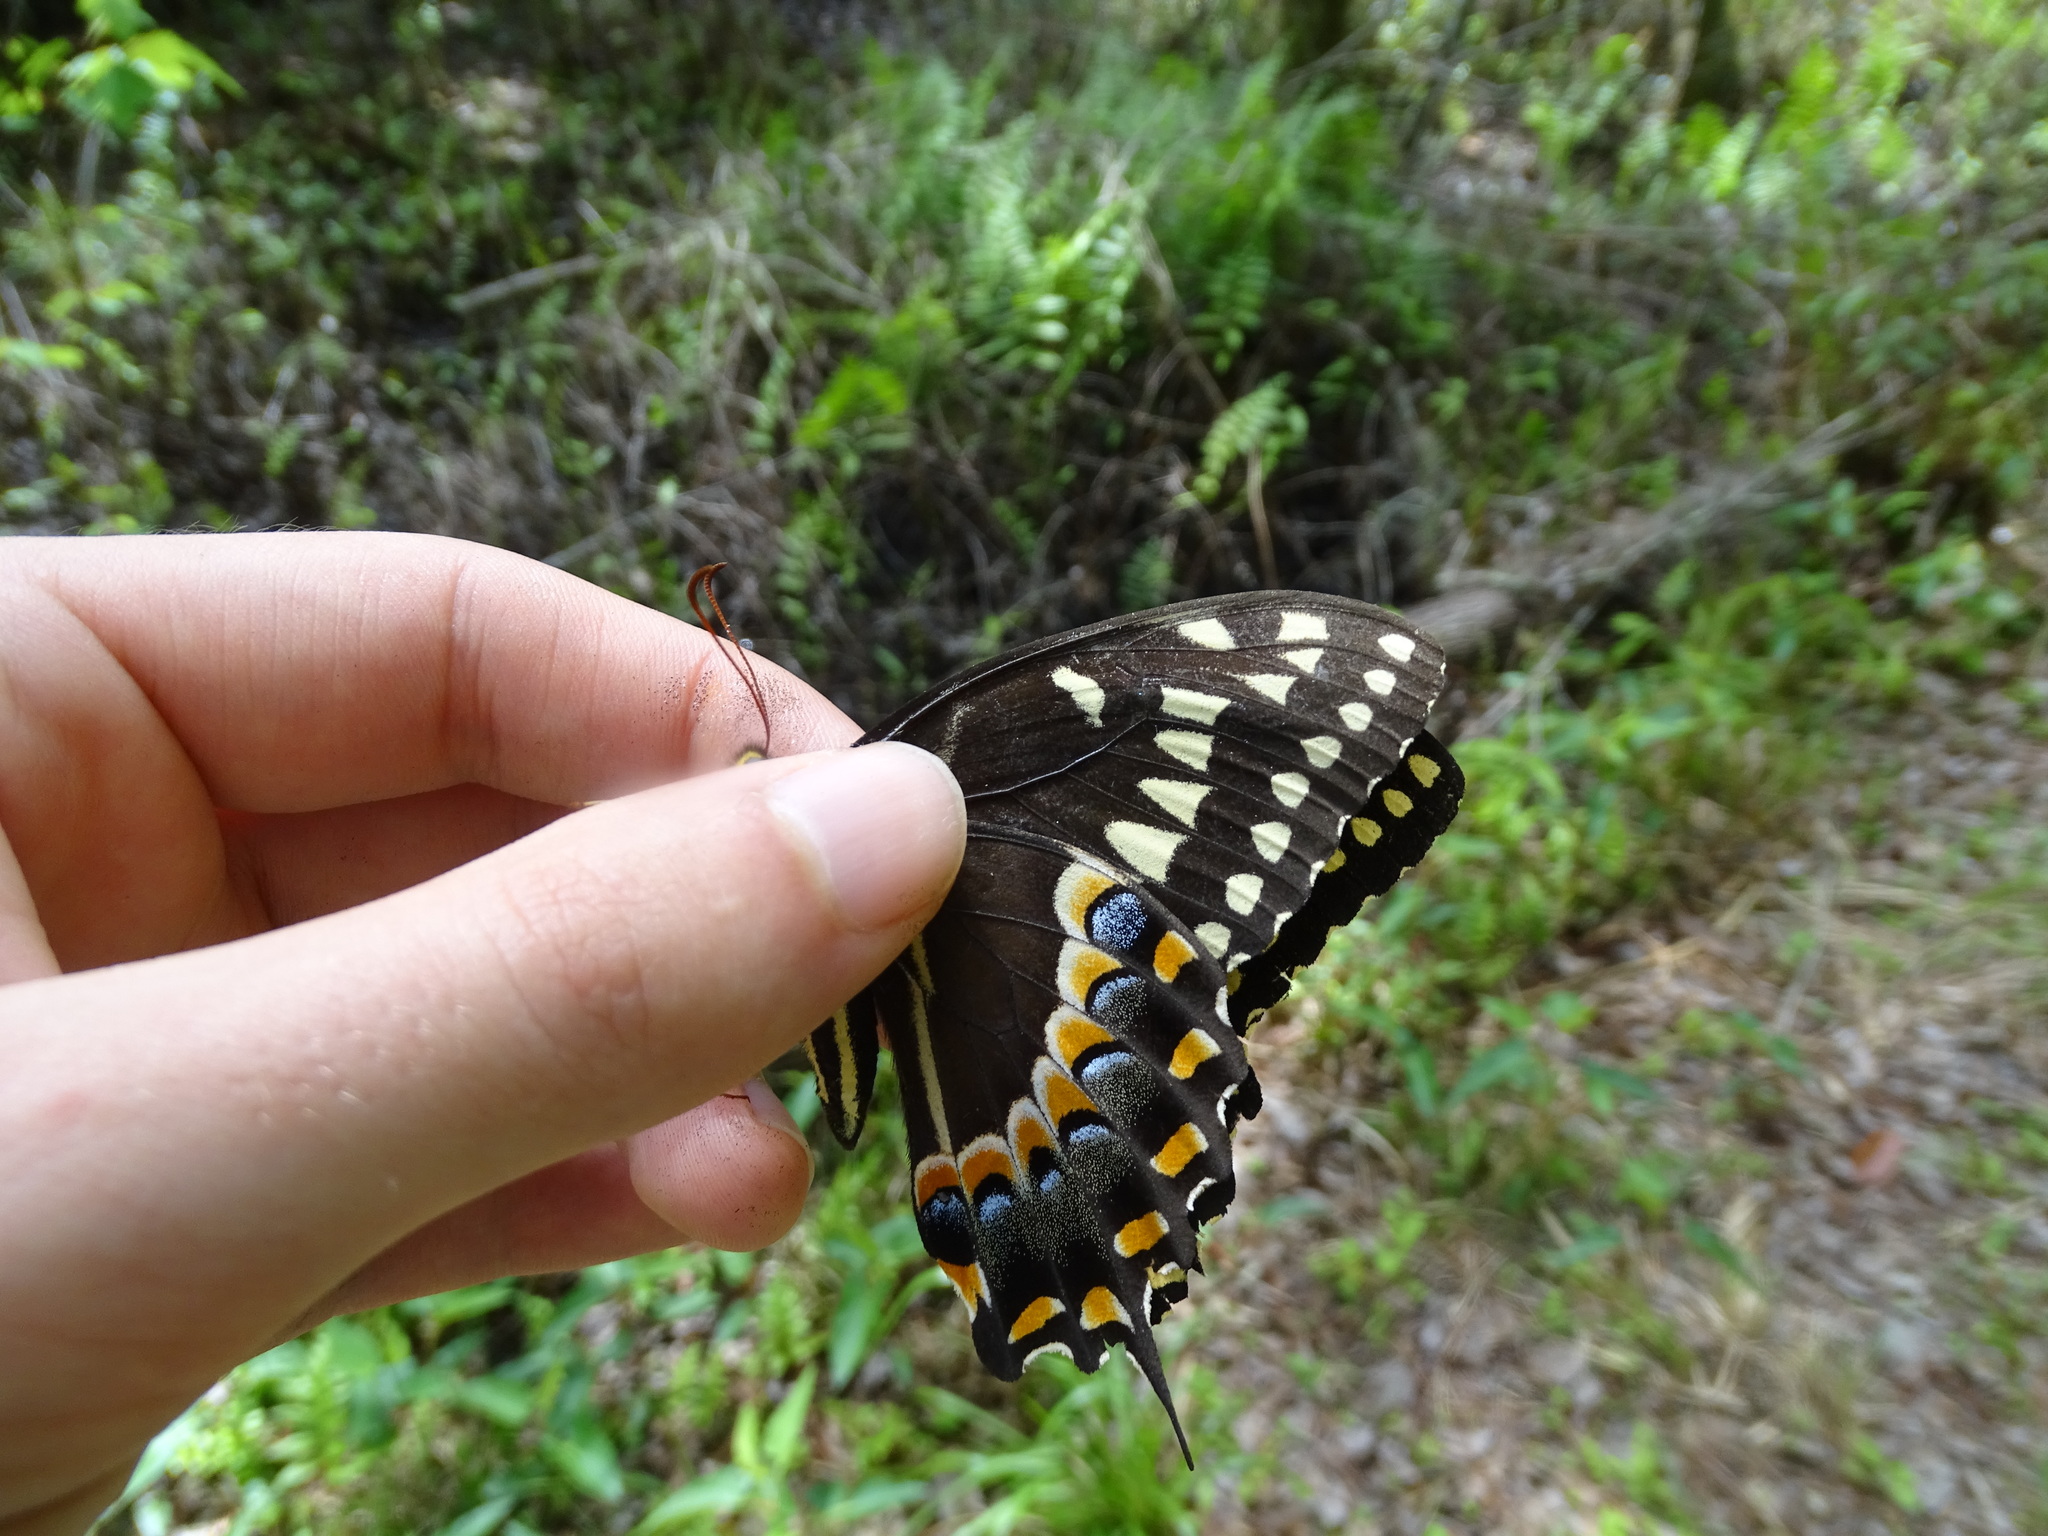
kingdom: Animalia
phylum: Arthropoda
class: Insecta
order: Lepidoptera
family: Papilionidae
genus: Papilio
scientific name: Papilio palamedes
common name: Palamedes swallowtail
